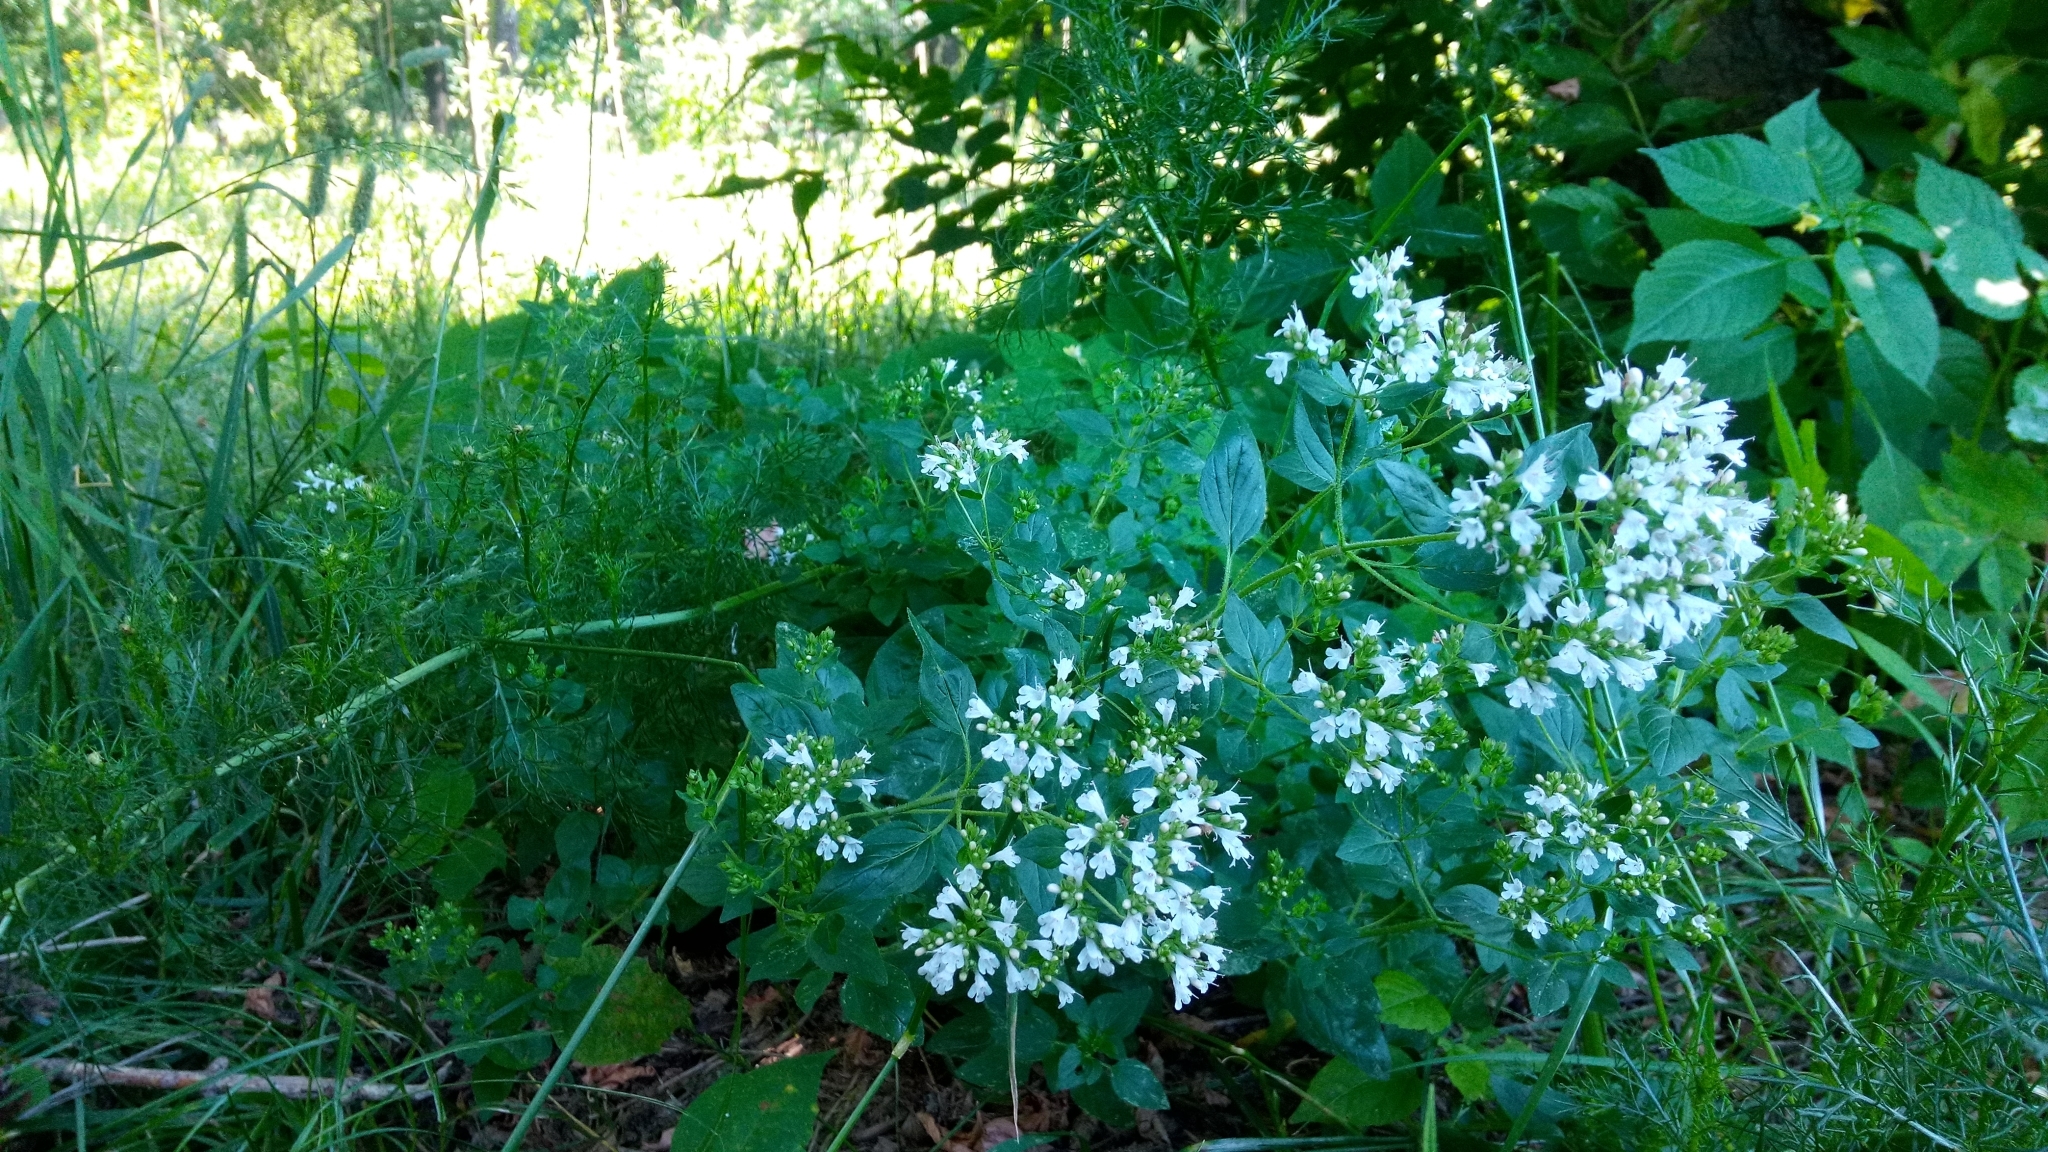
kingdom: Plantae
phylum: Tracheophyta
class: Magnoliopsida
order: Lamiales
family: Lamiaceae
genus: Origanum
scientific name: Origanum vulgare
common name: Wild marjoram
